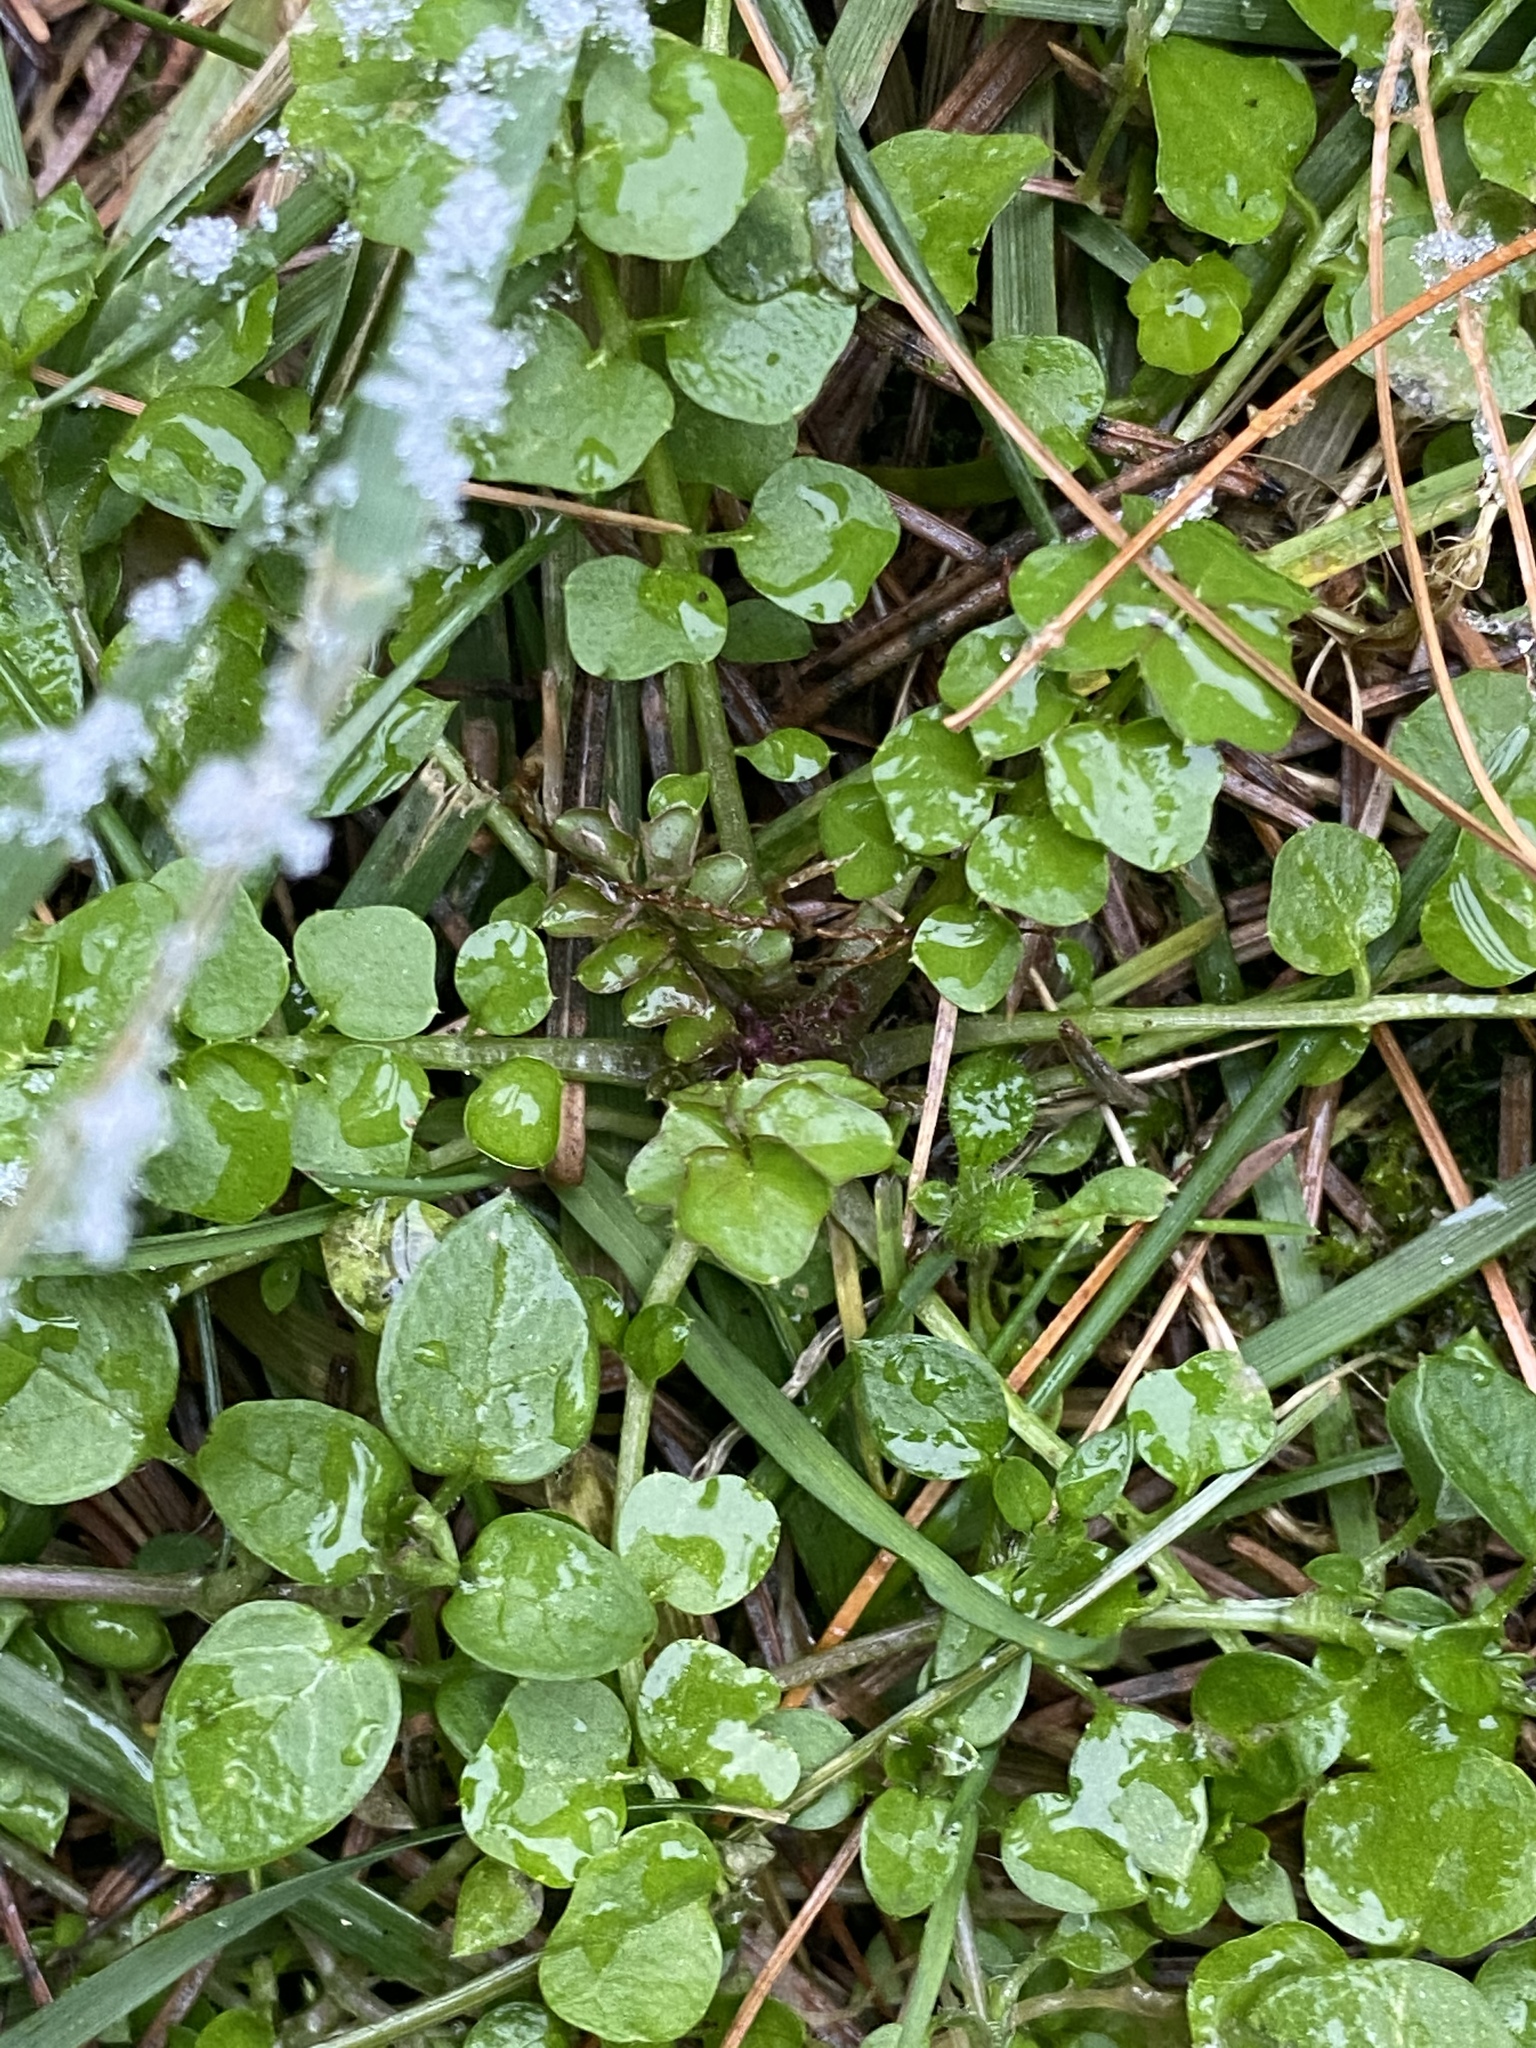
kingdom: Plantae
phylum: Tracheophyta
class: Magnoliopsida
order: Brassicales
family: Brassicaceae
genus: Cardamine
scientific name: Cardamine hirsuta
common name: Hairy bittercress
